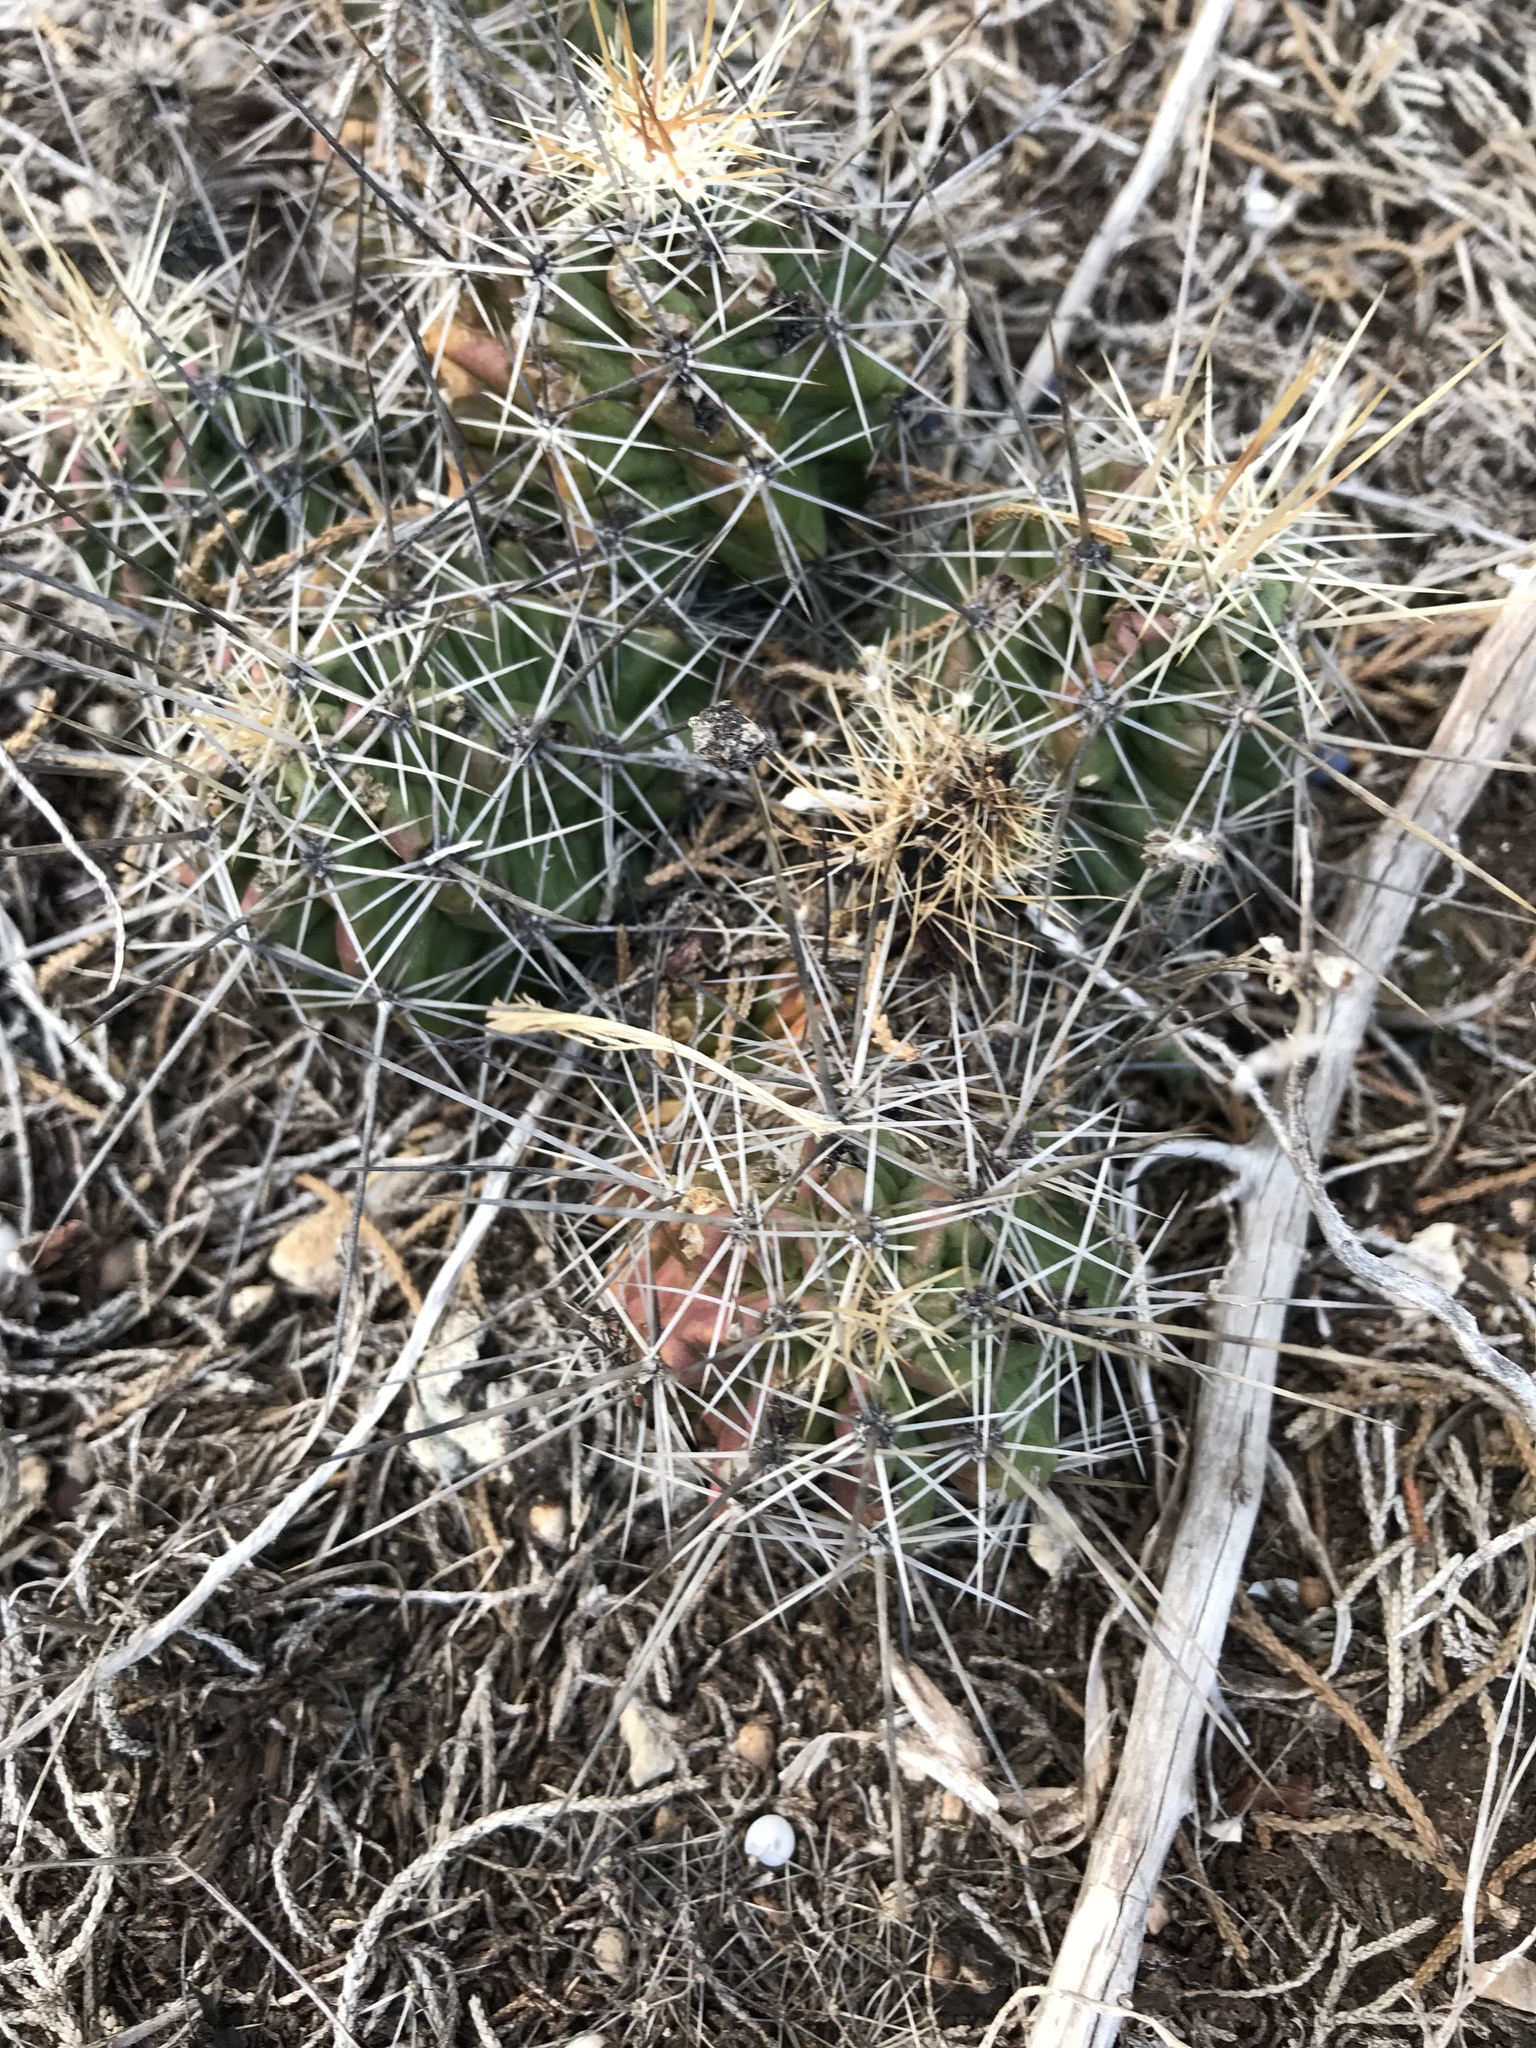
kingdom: Plantae
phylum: Tracheophyta
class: Magnoliopsida
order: Caryophyllales
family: Cactaceae
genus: Echinocereus
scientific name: Echinocereus enneacanthus
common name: Pitaya
